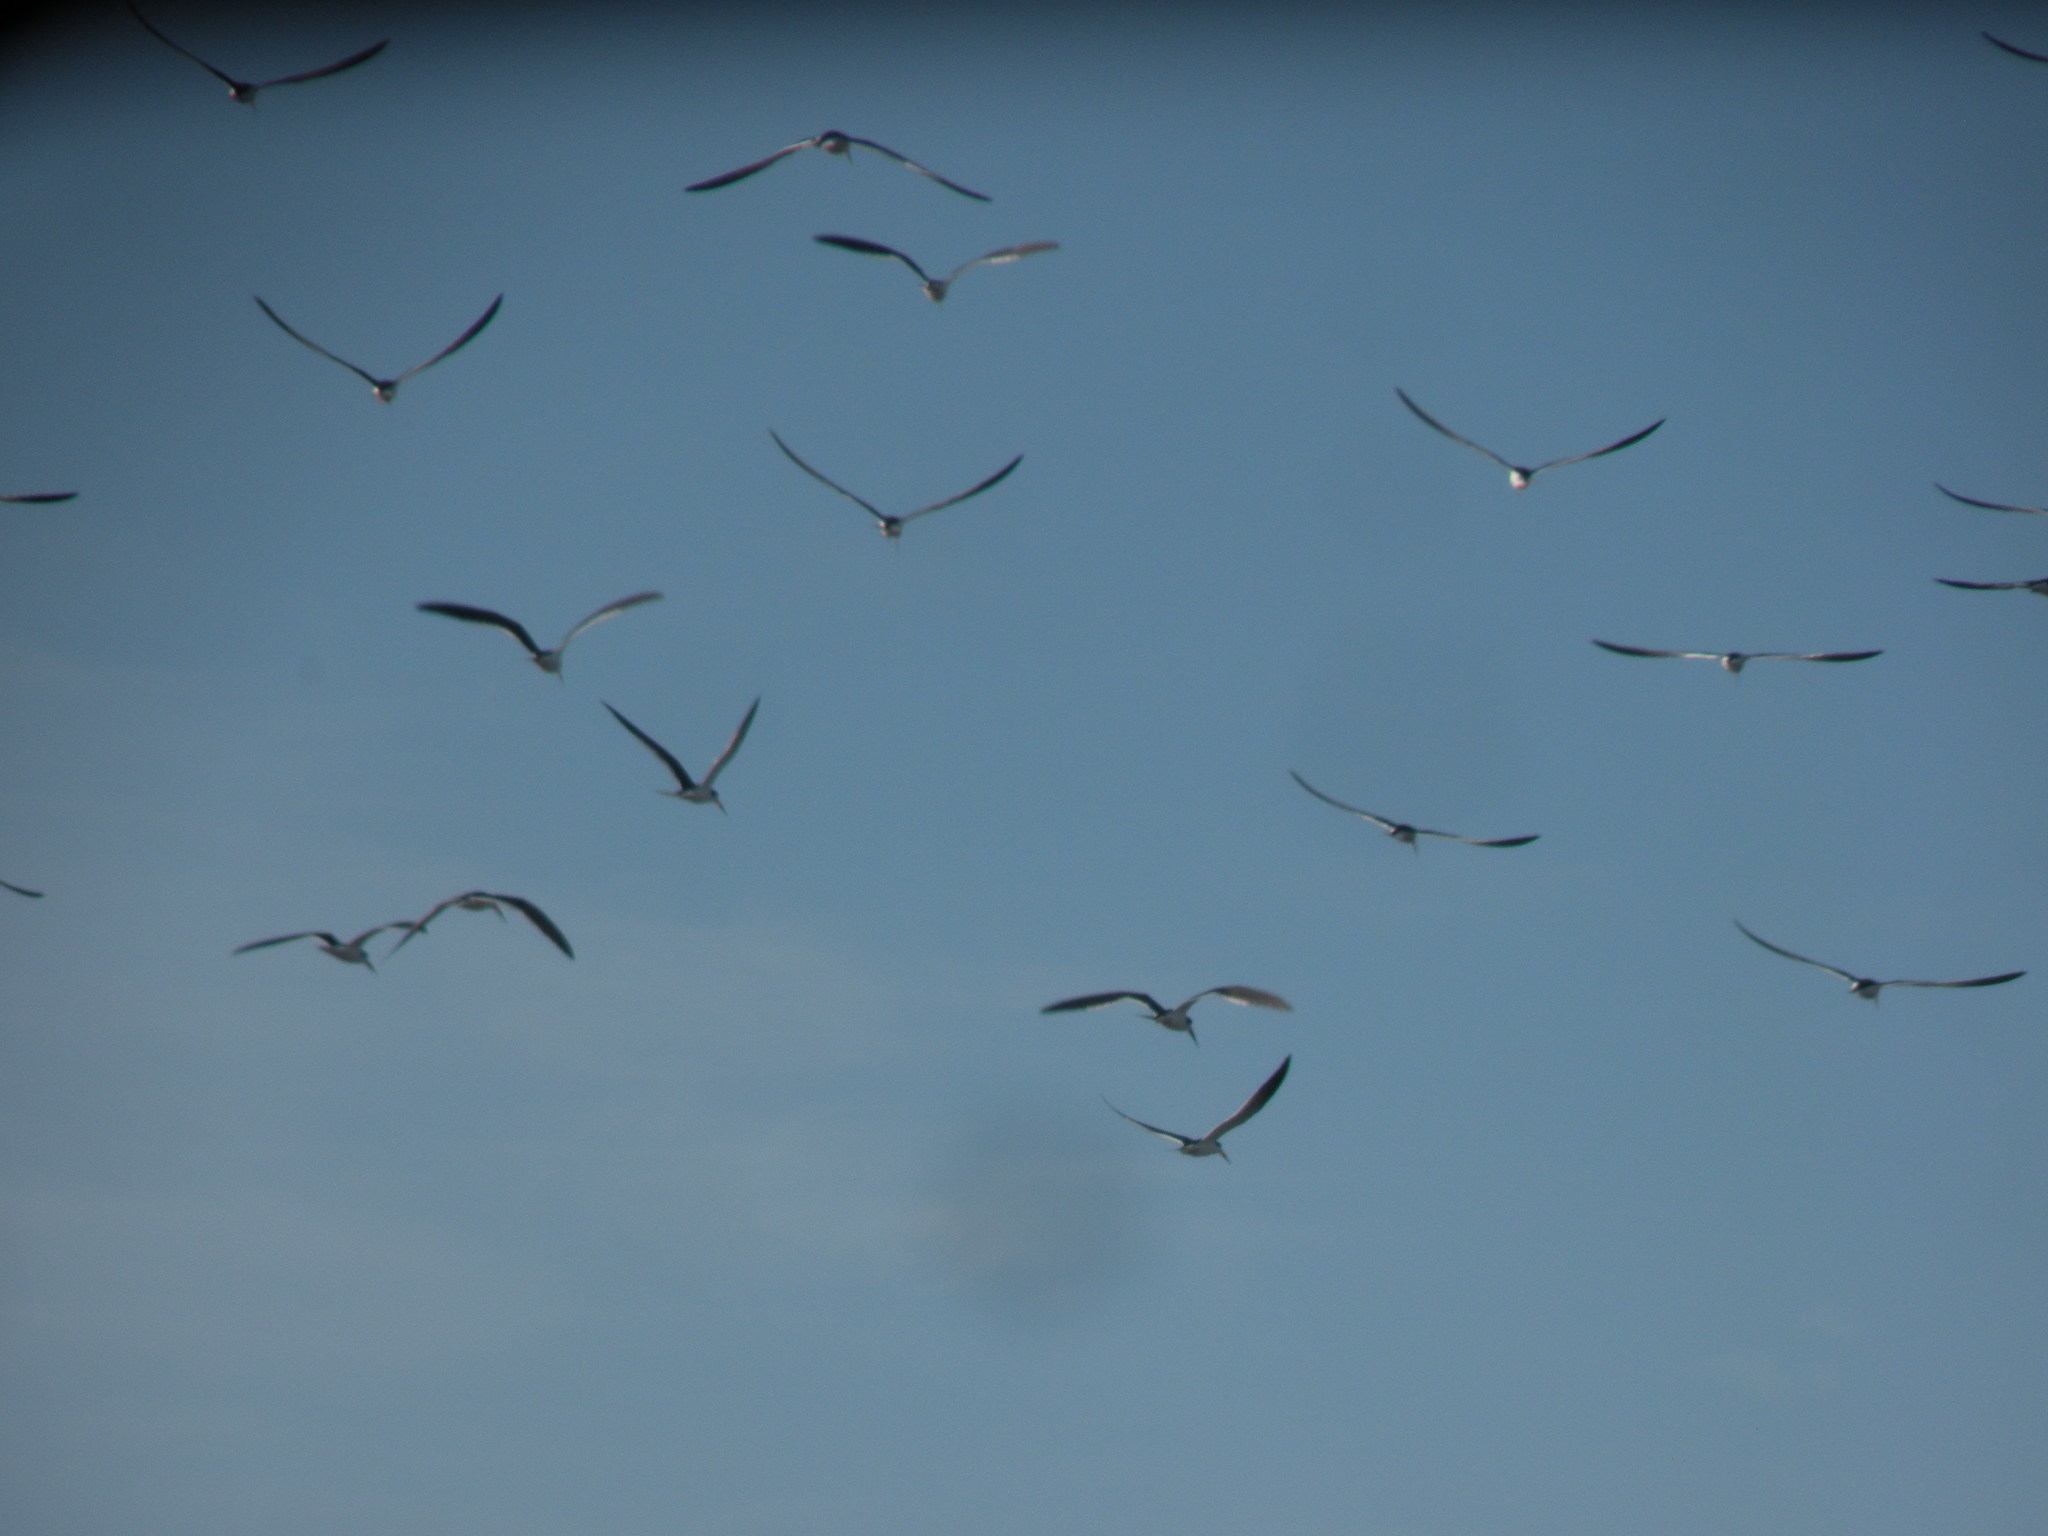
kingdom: Animalia
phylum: Chordata
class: Aves
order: Charadriiformes
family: Laridae
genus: Rynchops
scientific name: Rynchops niger
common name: Black skimmer
